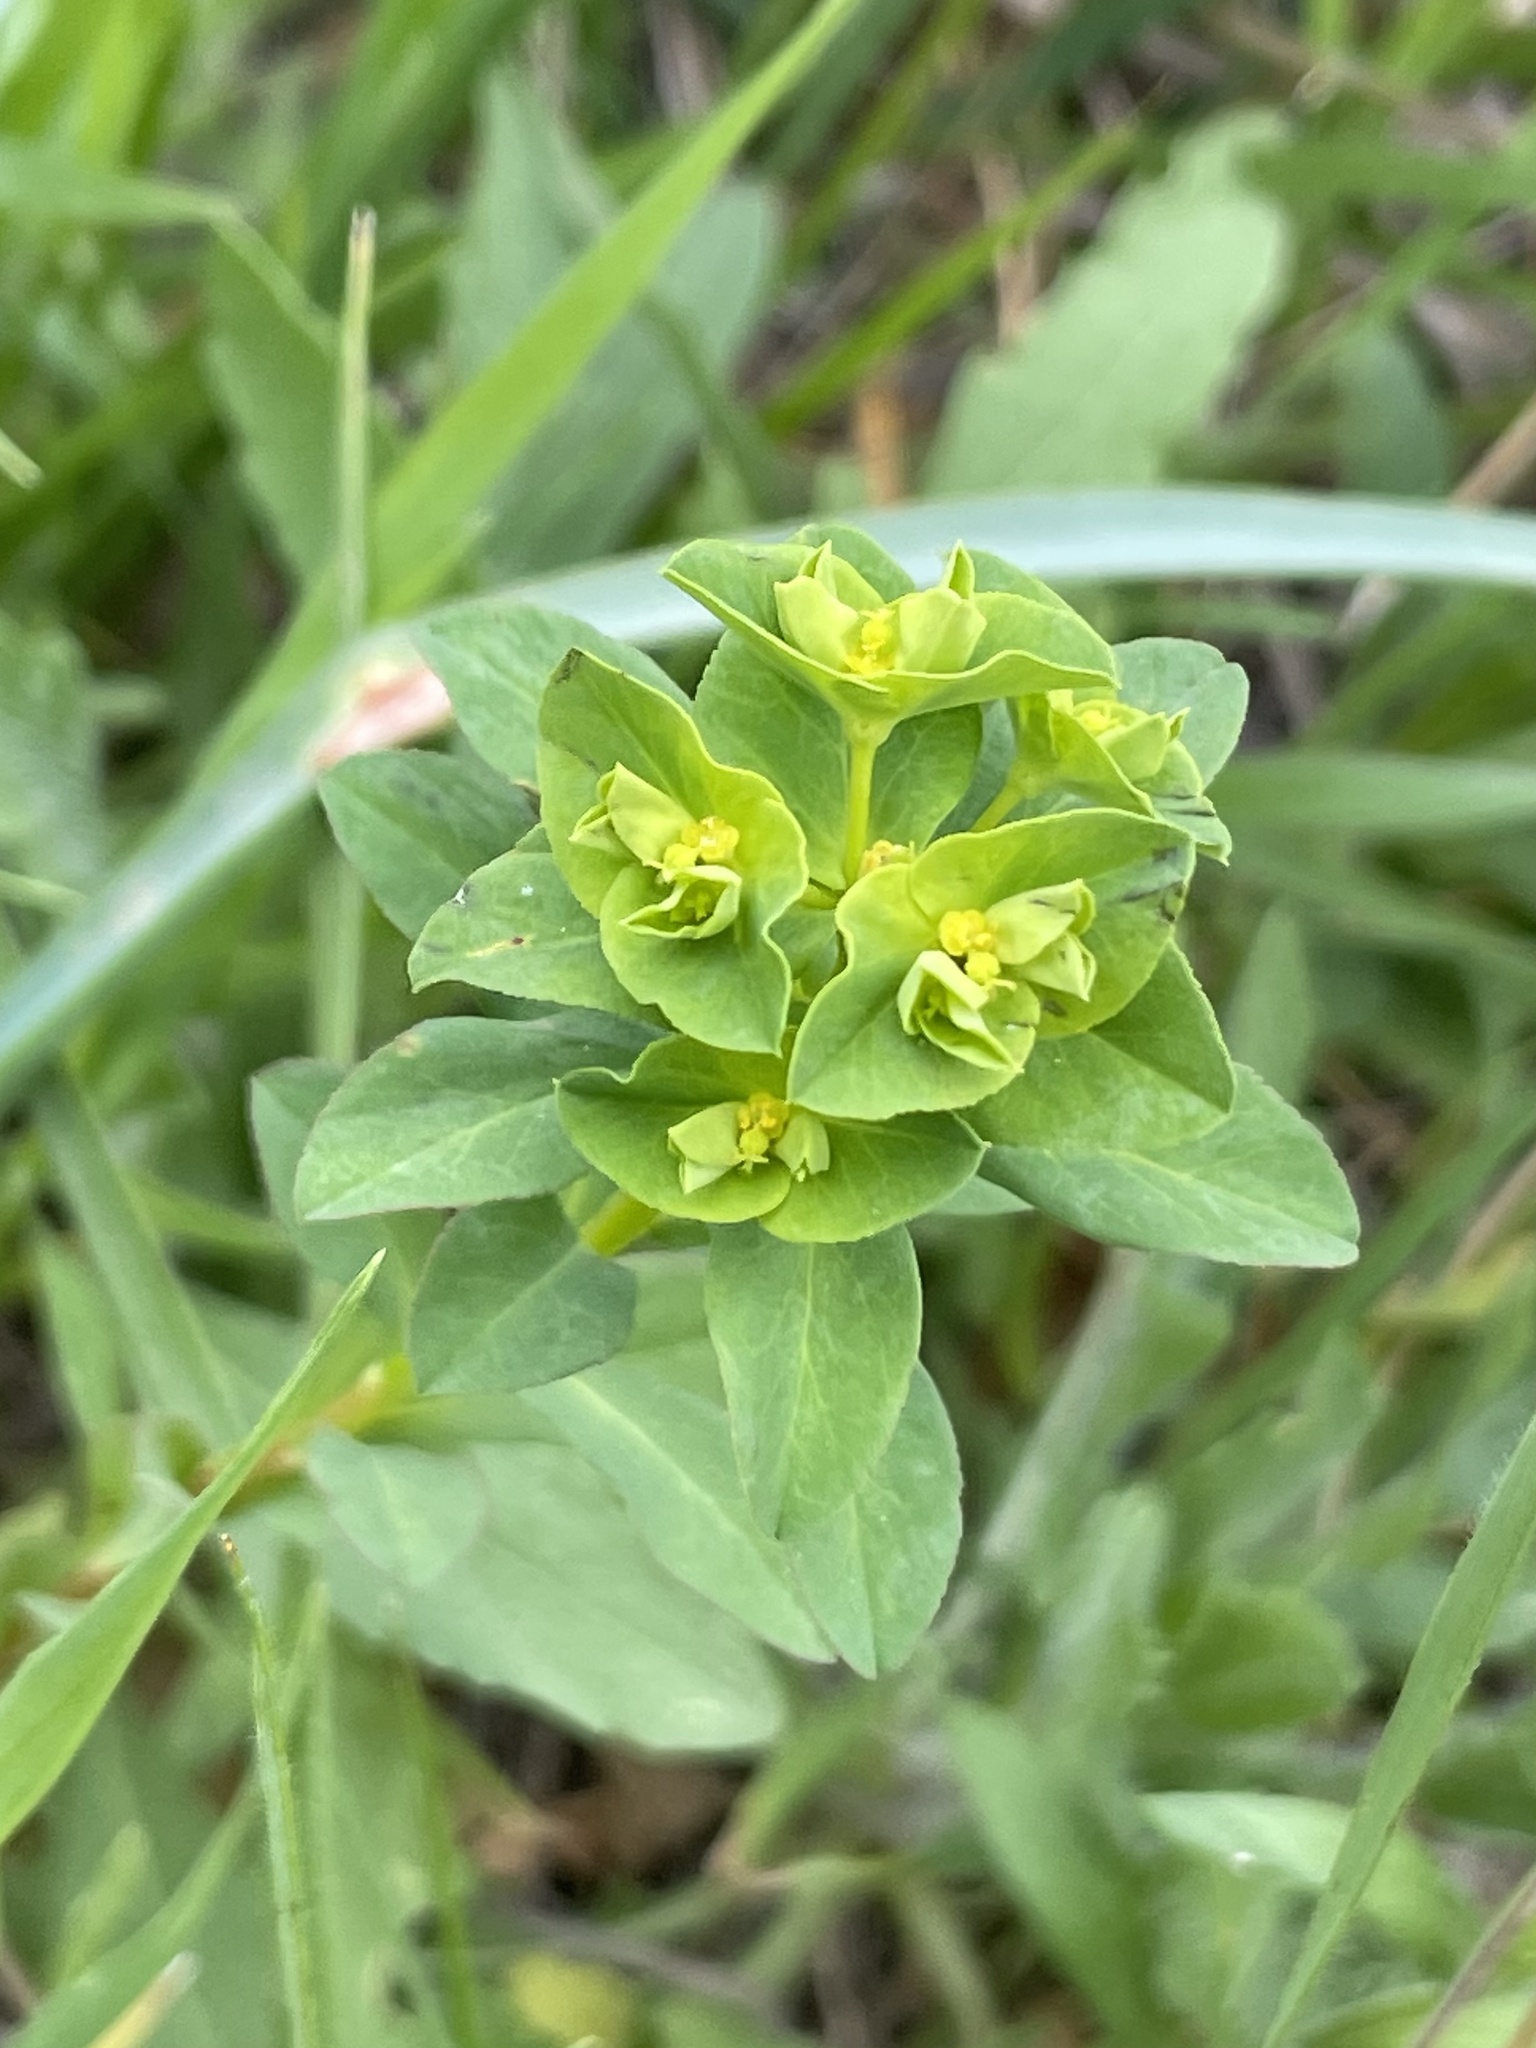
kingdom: Plantae
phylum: Tracheophyta
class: Magnoliopsida
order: Malpighiales
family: Euphorbiaceae
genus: Euphorbia
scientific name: Euphorbia spathulata
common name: Blunt spurge
